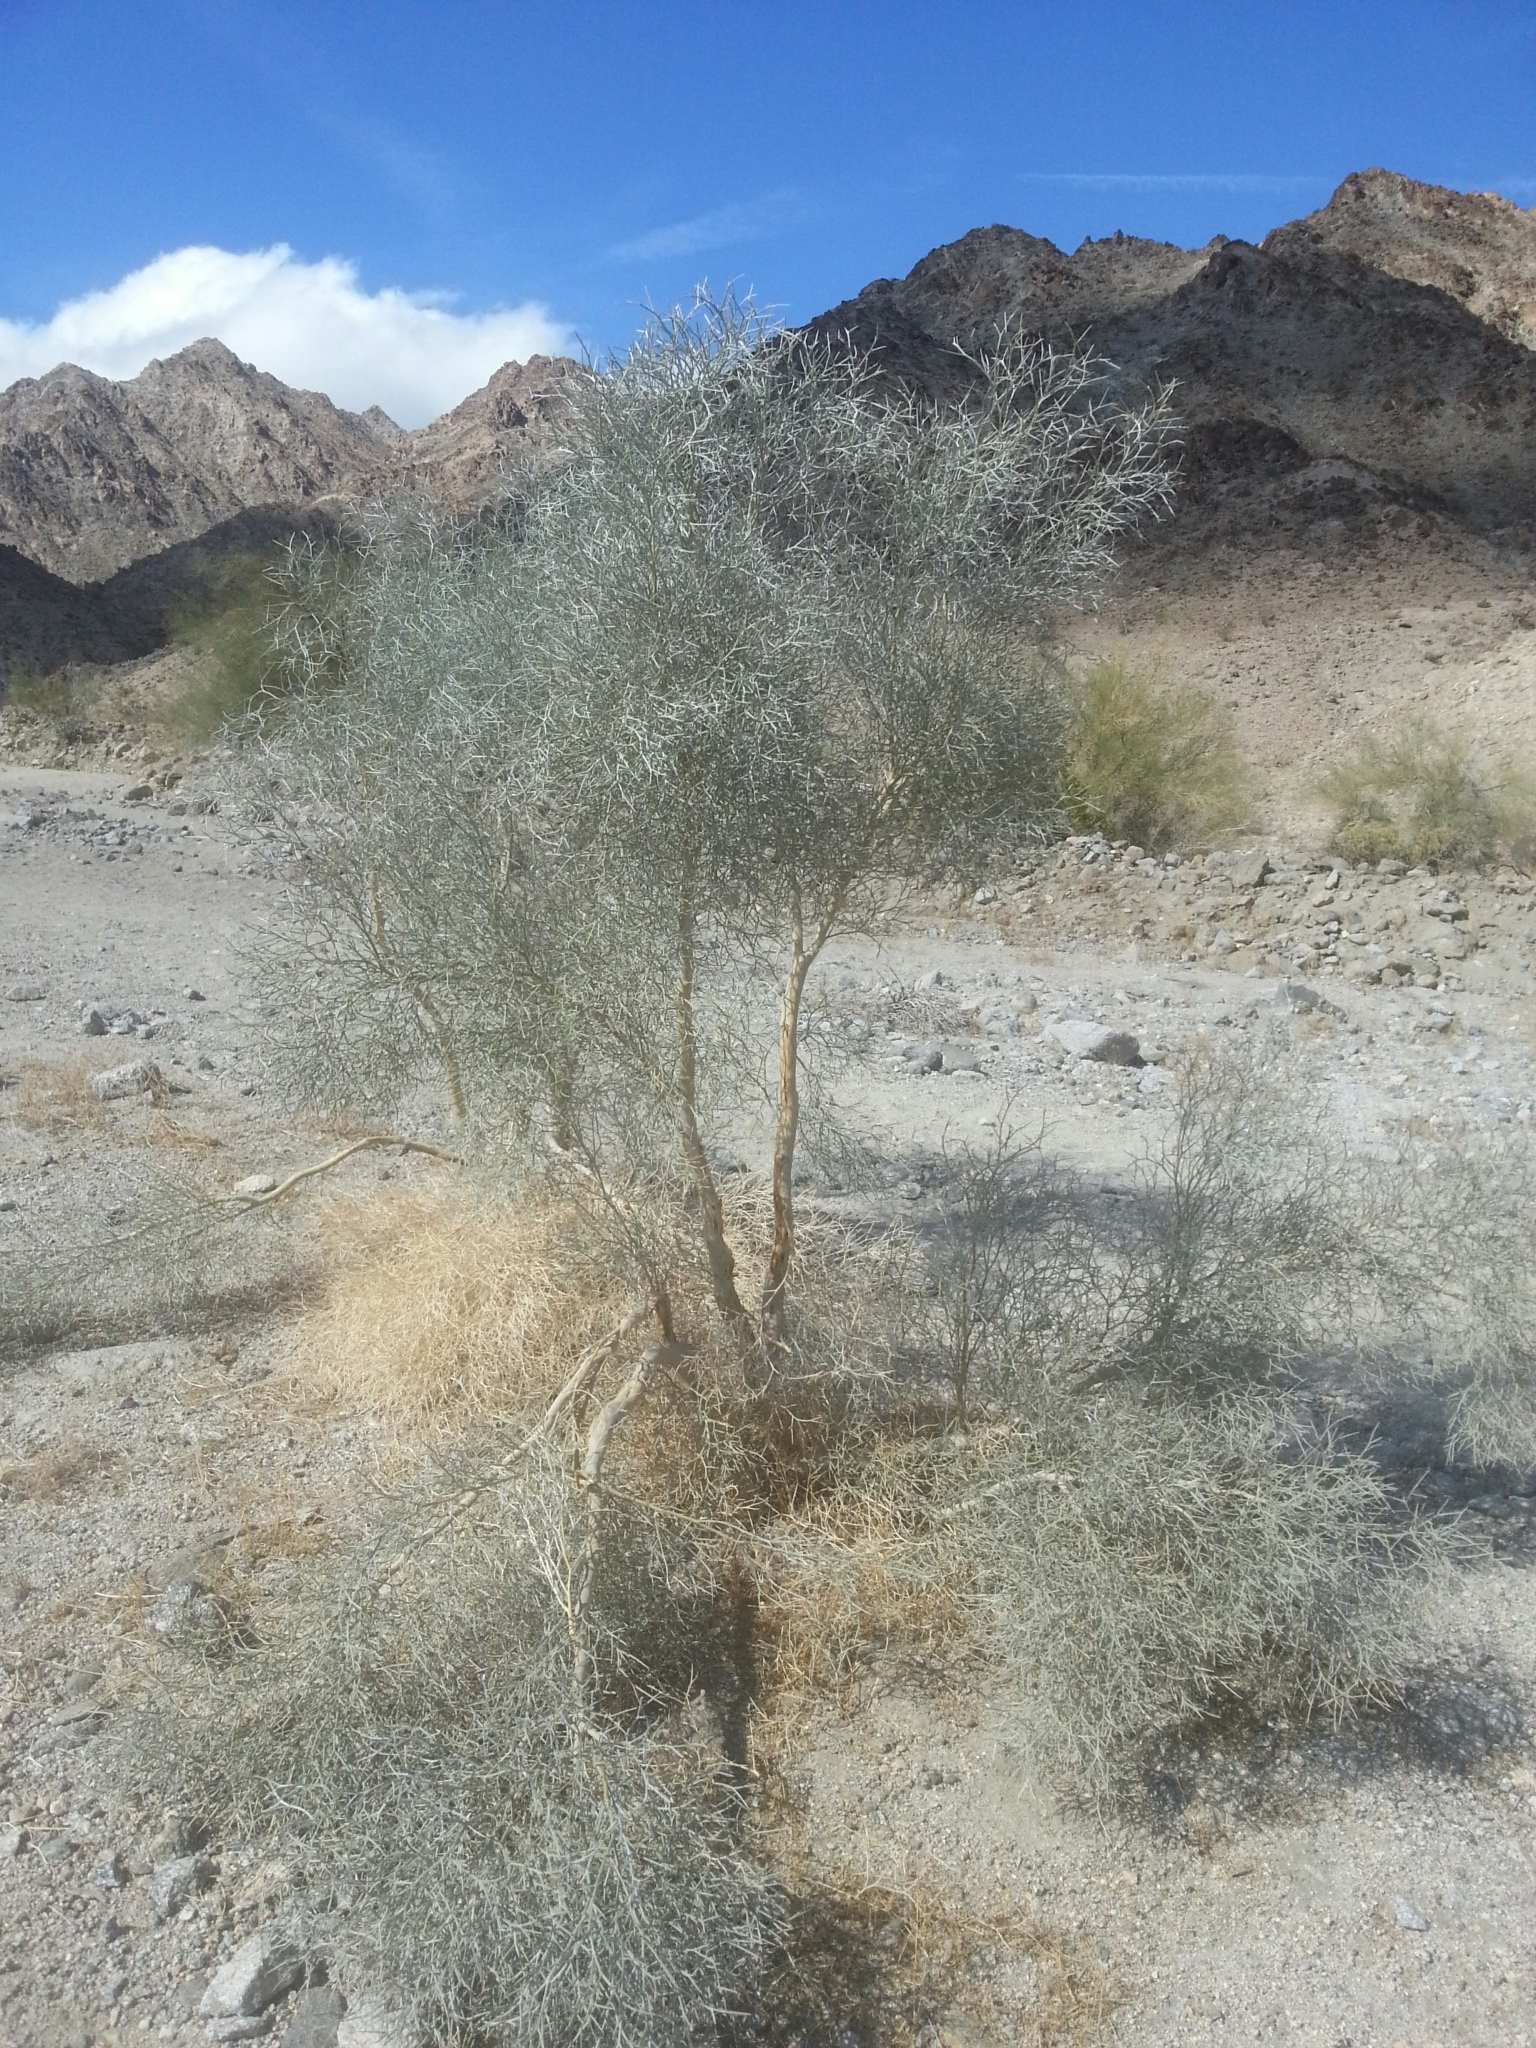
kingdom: Plantae
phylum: Tracheophyta
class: Magnoliopsida
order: Fabales
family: Fabaceae
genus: Psorothamnus
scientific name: Psorothamnus spinosus
